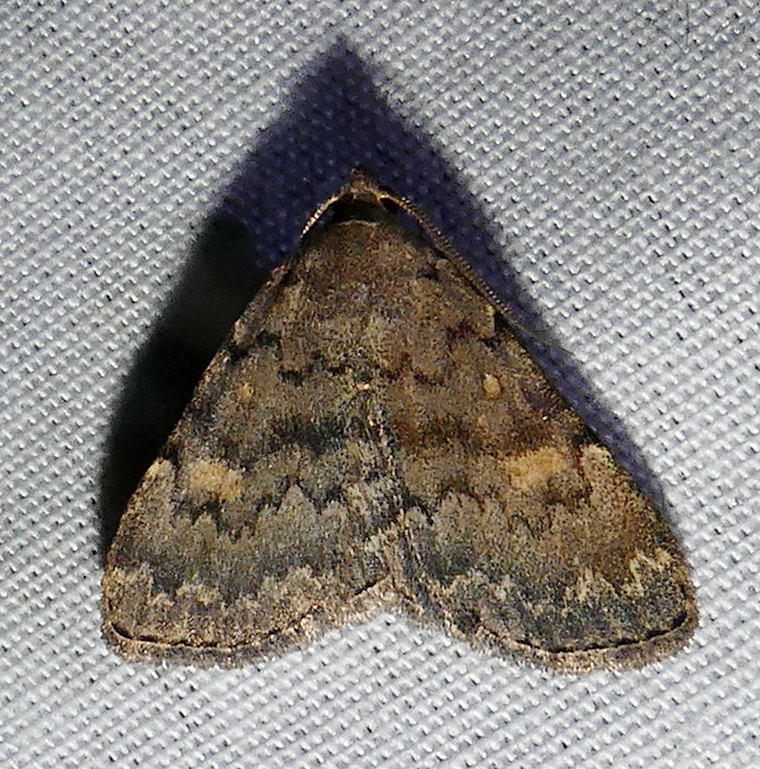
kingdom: Animalia
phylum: Arthropoda
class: Insecta
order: Lepidoptera
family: Erebidae
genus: Idia
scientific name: Idia aemula
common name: Common idia moth
